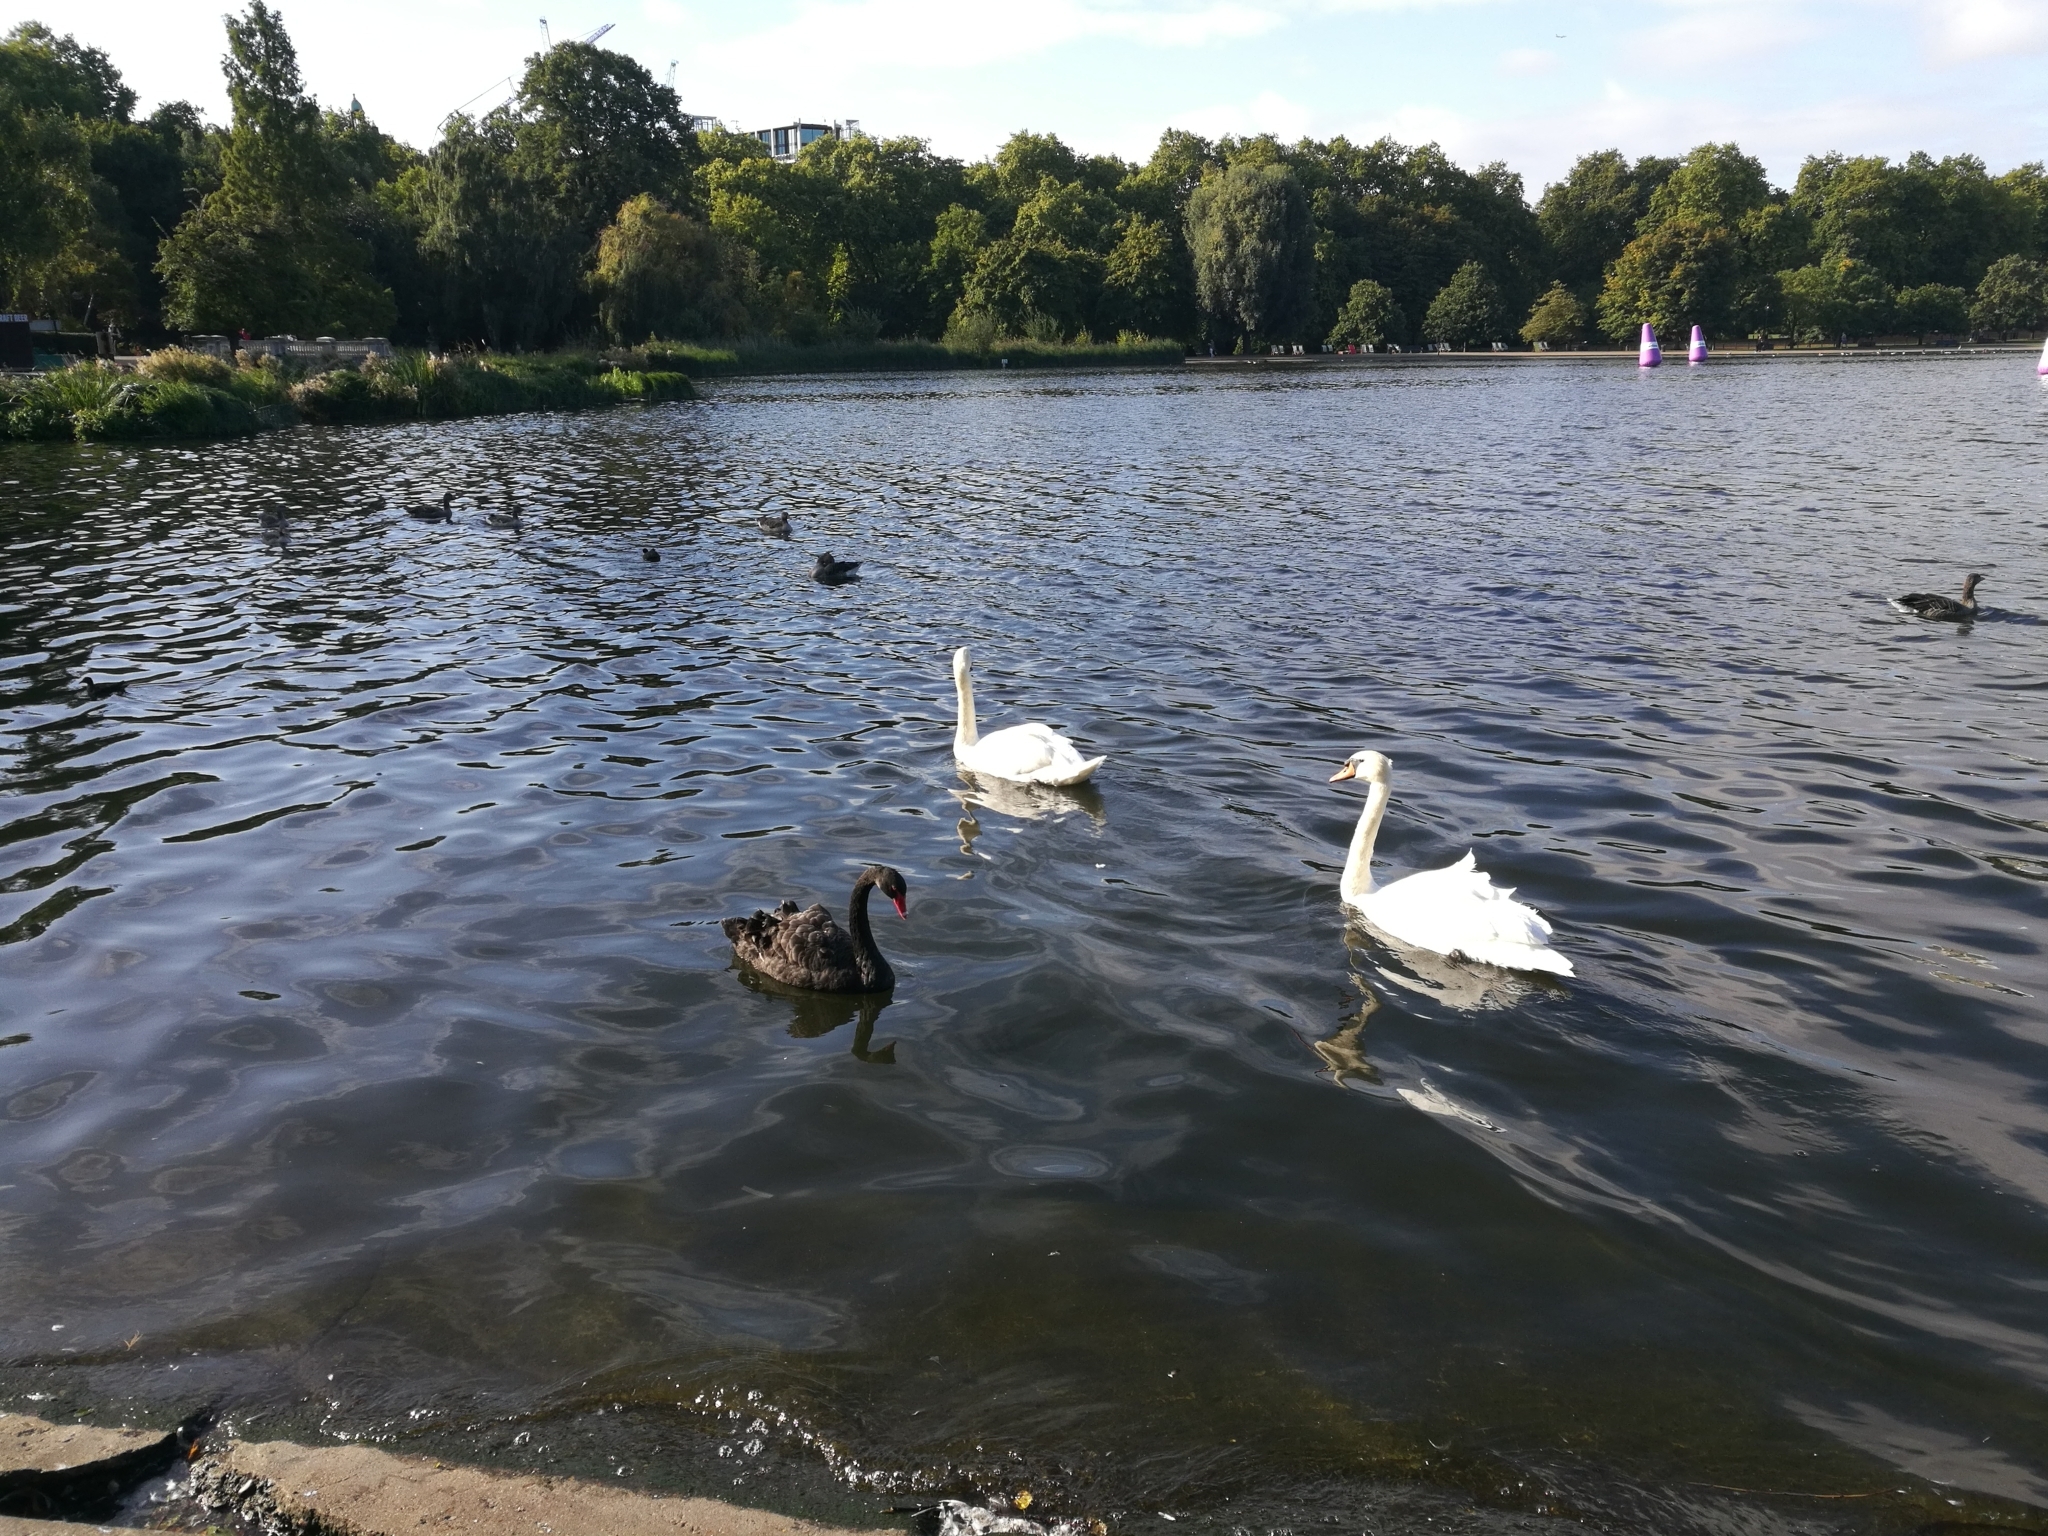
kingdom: Animalia
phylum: Chordata
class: Aves
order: Anseriformes
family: Anatidae
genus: Cygnus
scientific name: Cygnus atratus
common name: Black swan
